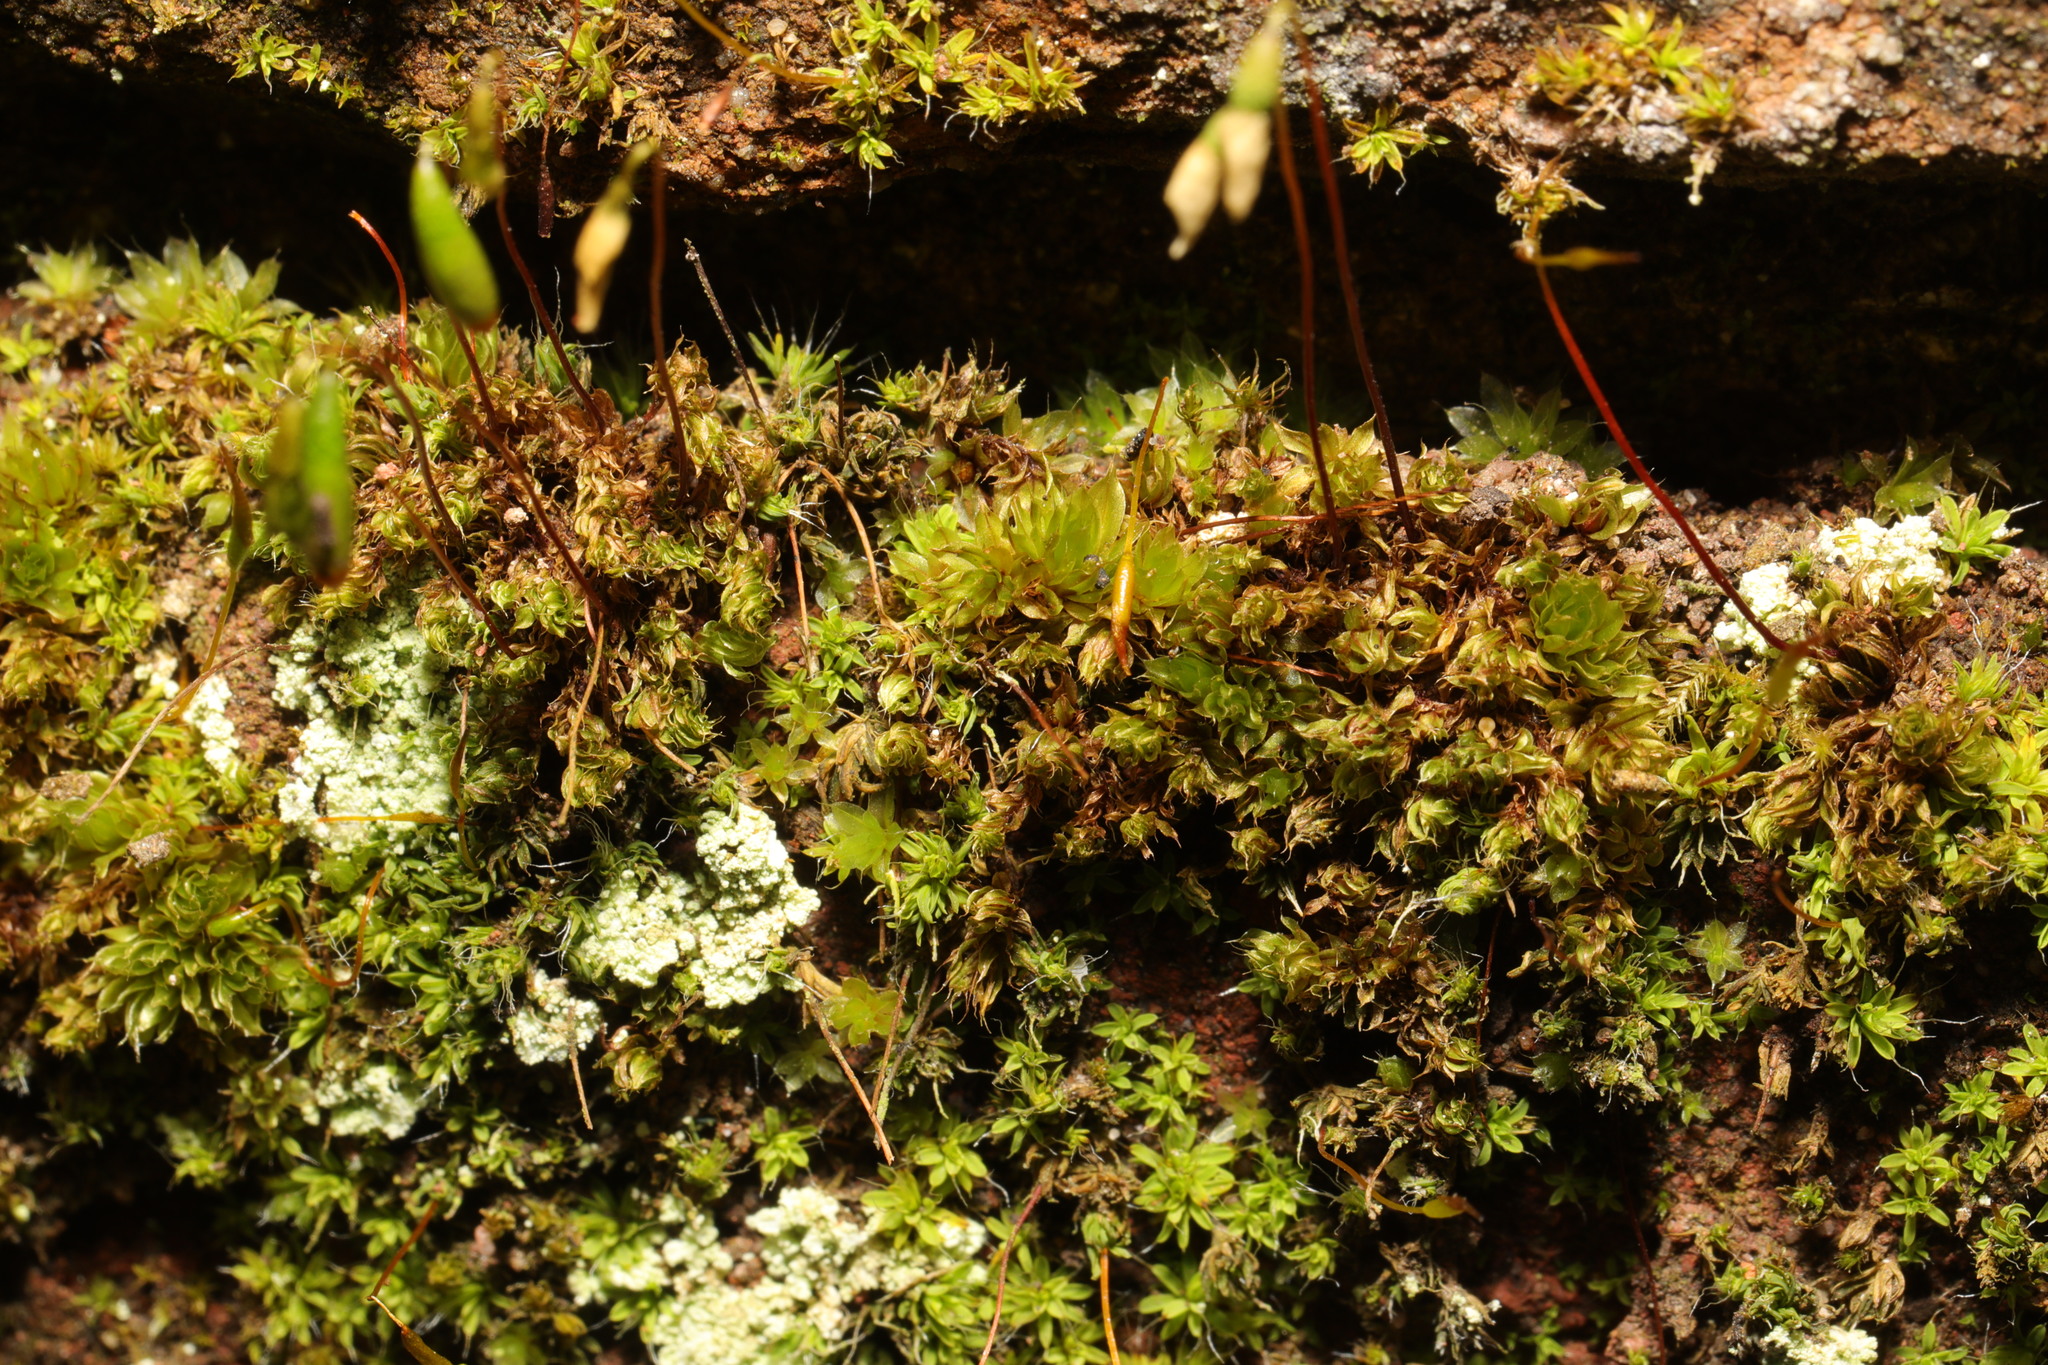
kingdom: Plantae
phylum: Bryophyta
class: Bryopsida
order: Bryales
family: Bryaceae
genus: Rosulabryum
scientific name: Rosulabryum capillare
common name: Capillary thread-moss
